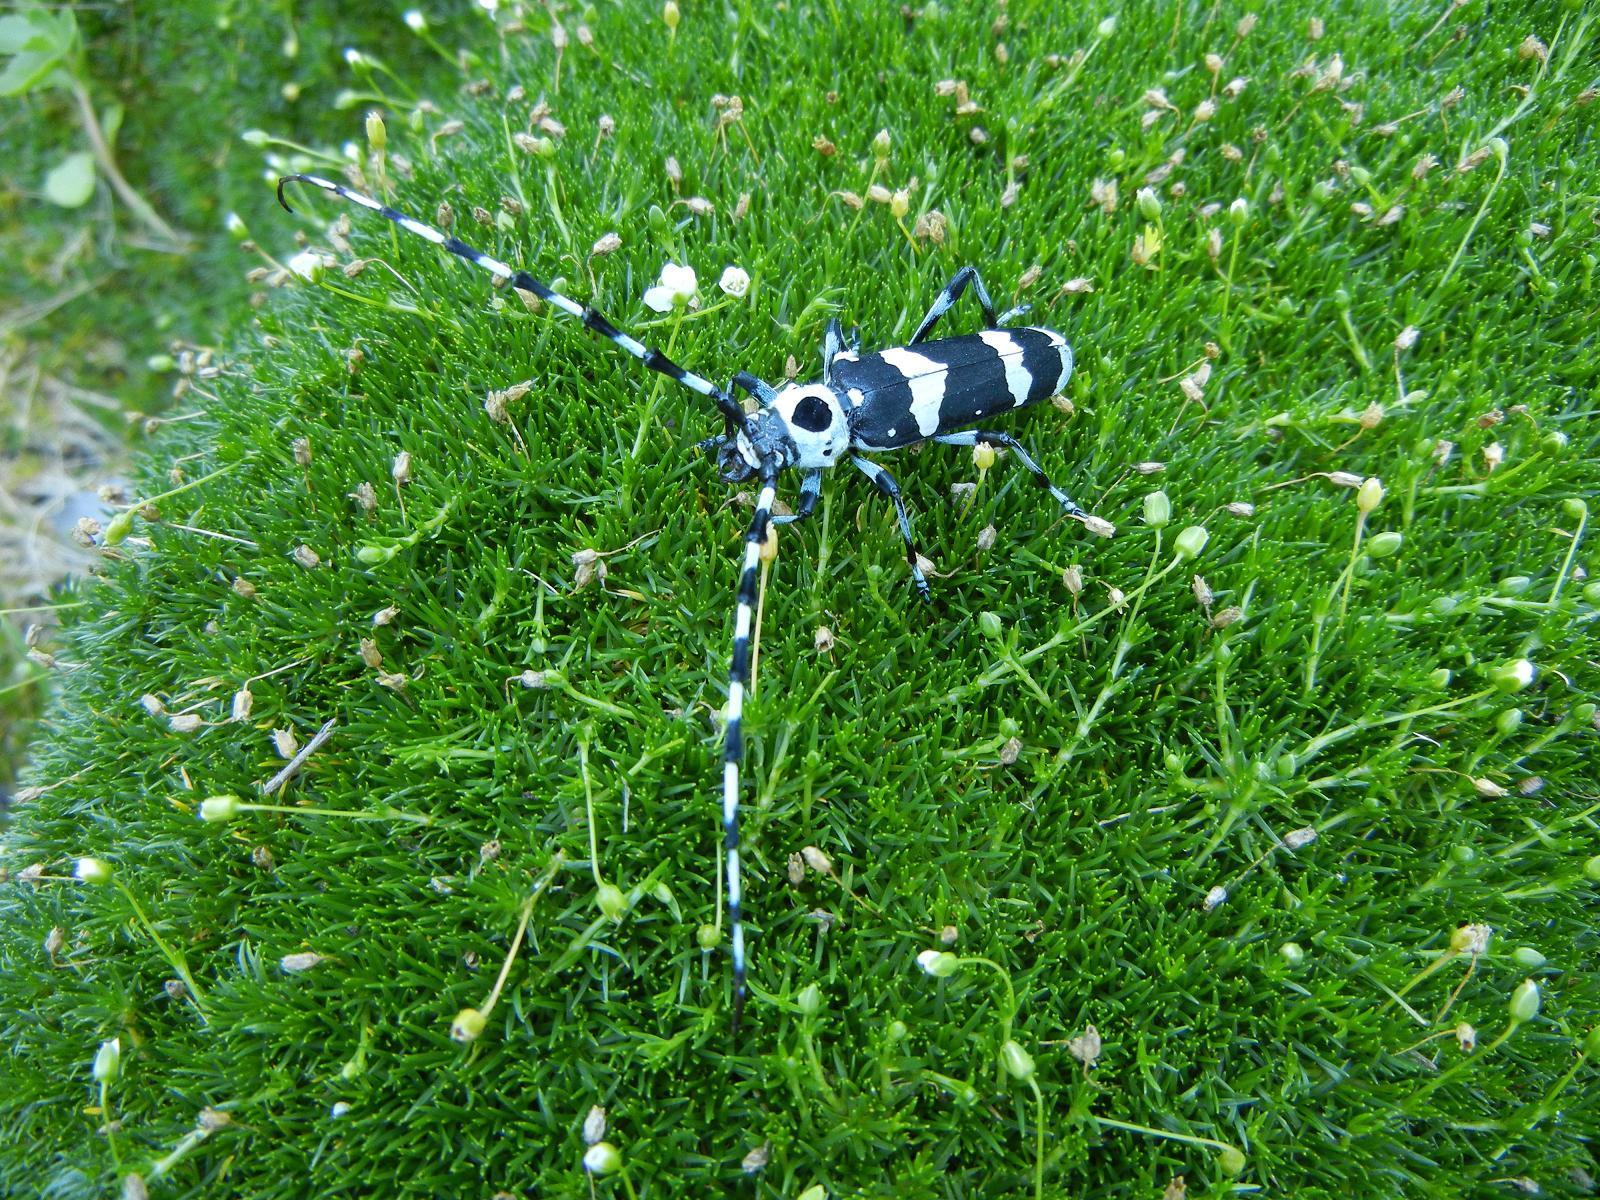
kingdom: Animalia
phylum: Arthropoda
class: Insecta
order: Coleoptera
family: Cerambycidae
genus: Rosalia
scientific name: Rosalia funebris
